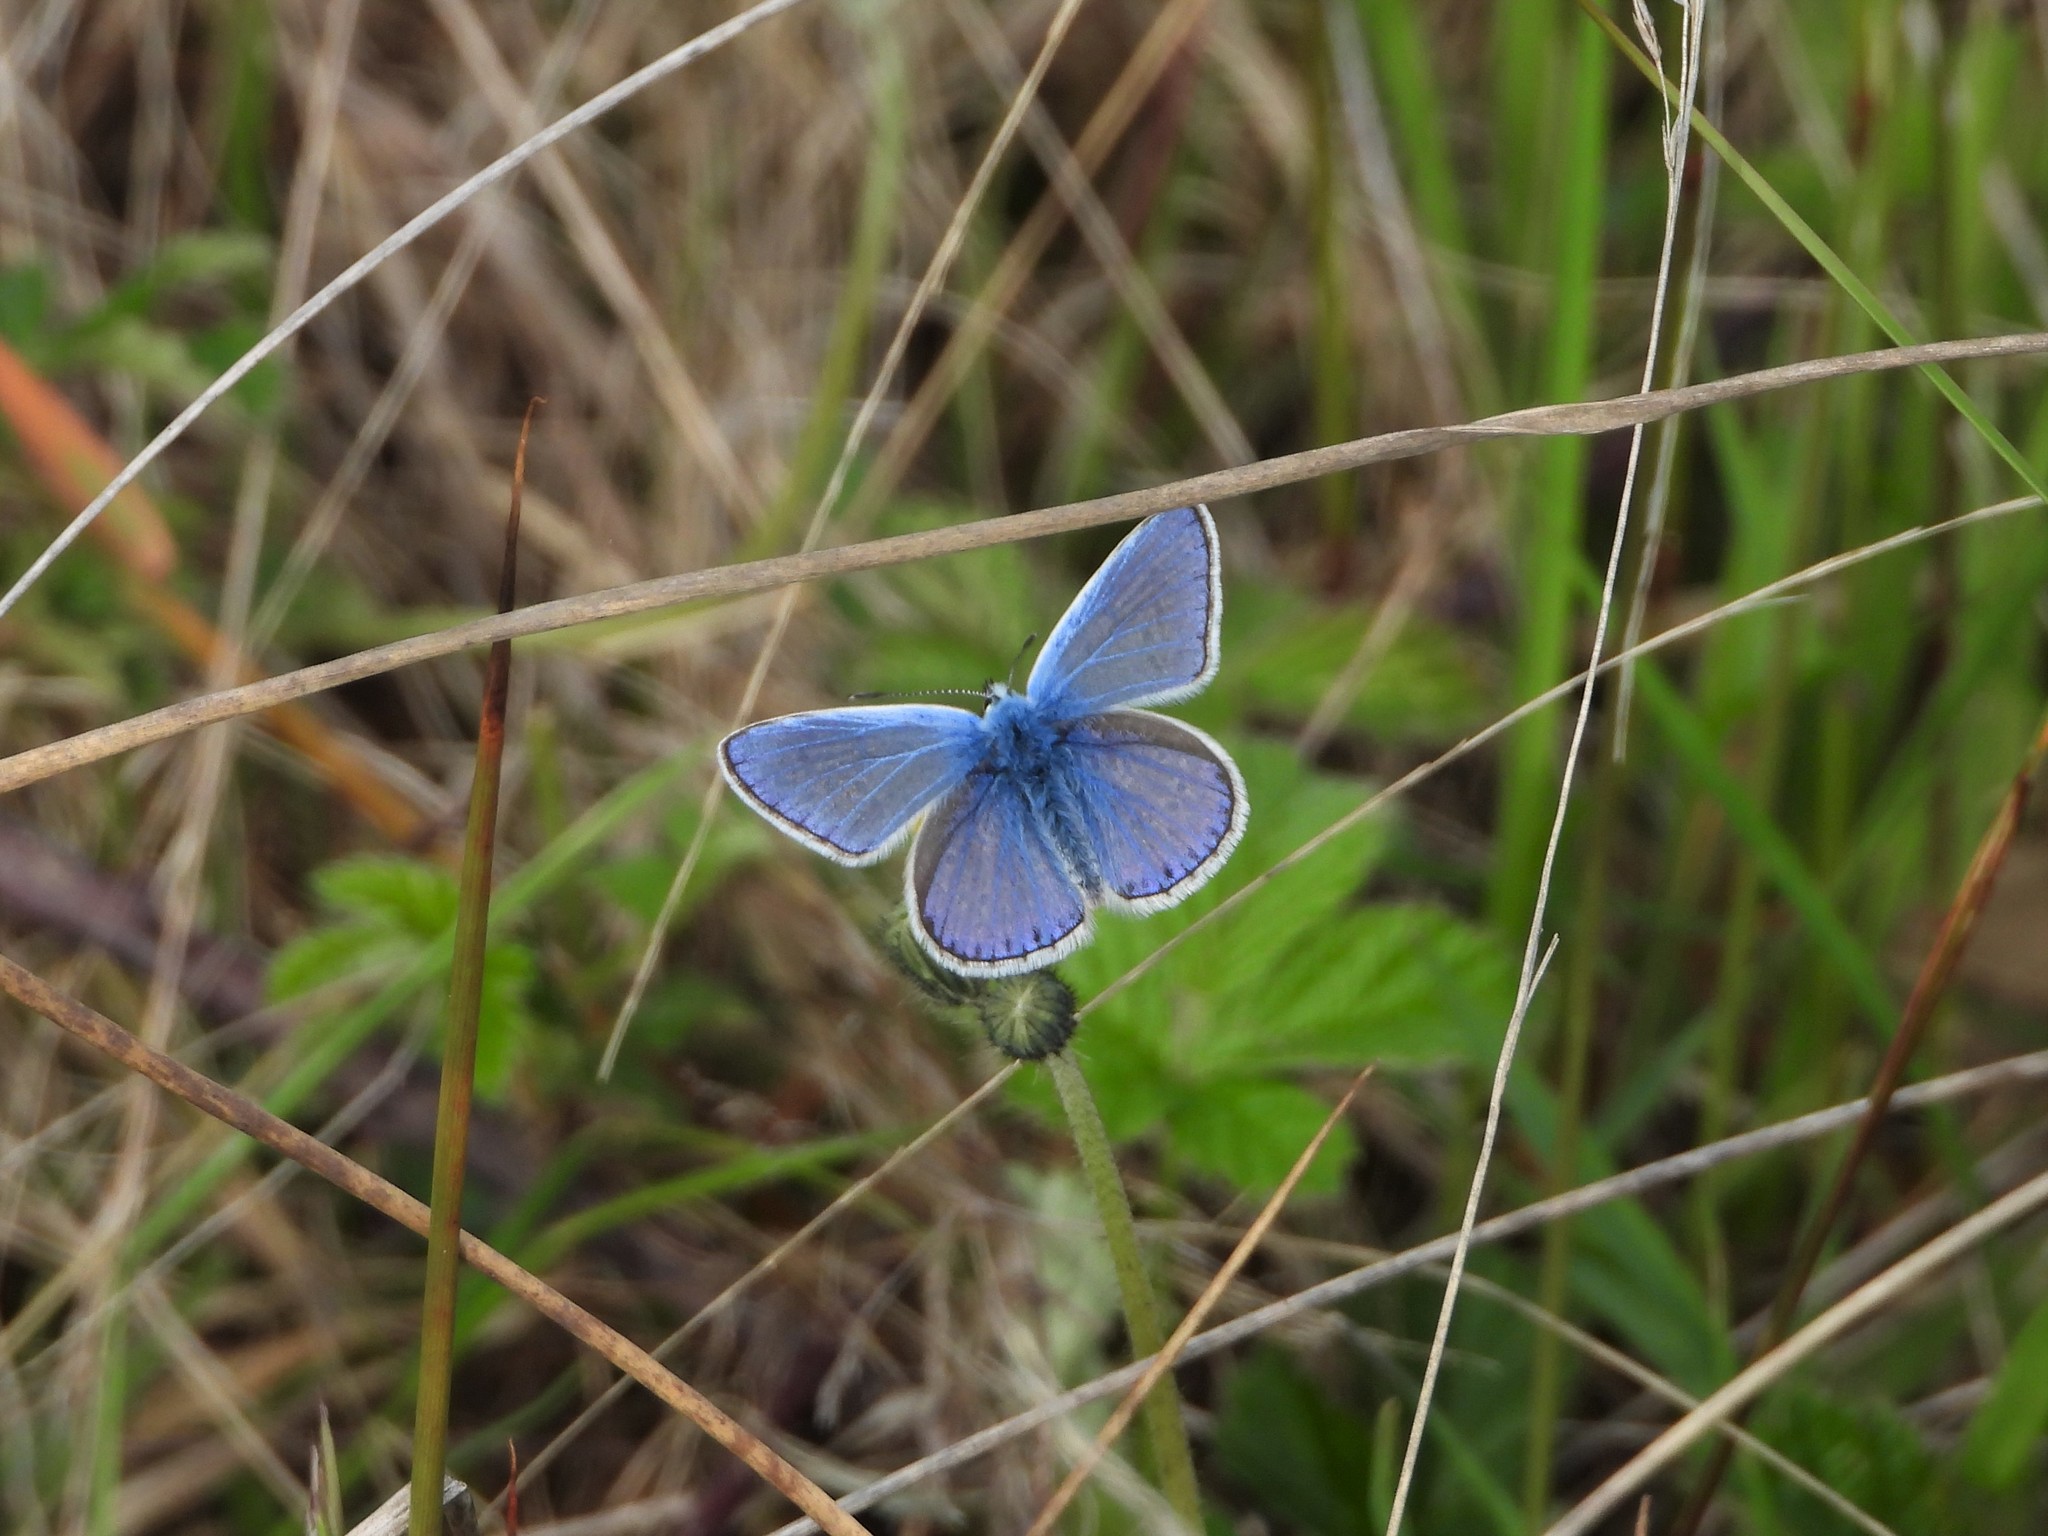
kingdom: Animalia
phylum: Arthropoda
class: Insecta
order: Lepidoptera
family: Lycaenidae
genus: Polyommatus
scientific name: Polyommatus icarus
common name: Common blue
